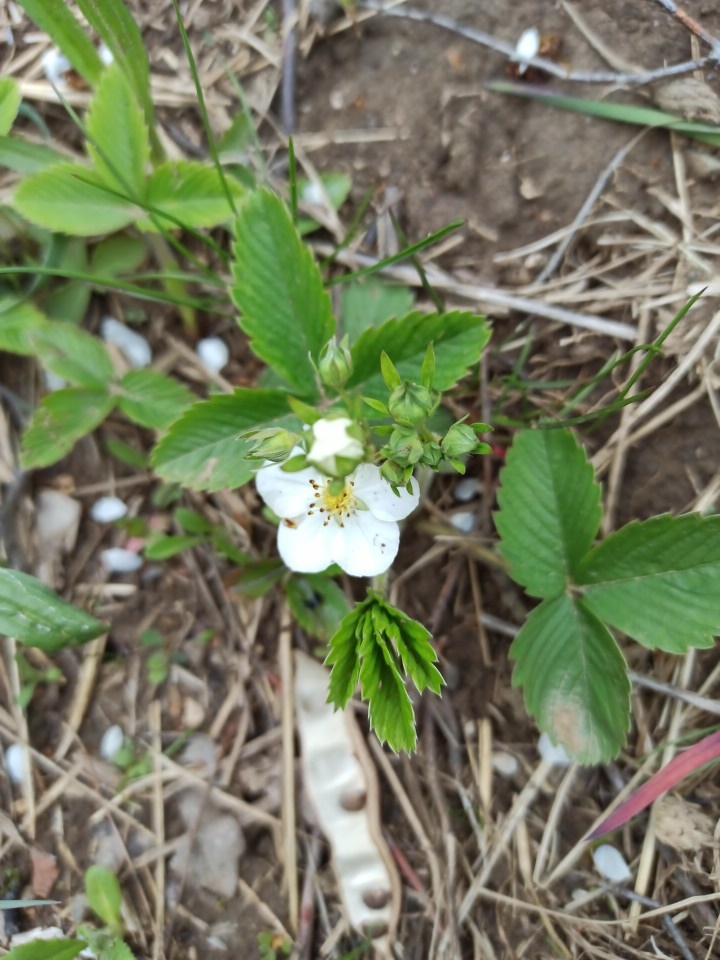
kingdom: Plantae
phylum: Tracheophyta
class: Magnoliopsida
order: Rosales
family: Rosaceae
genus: Fragaria
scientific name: Fragaria viridis
